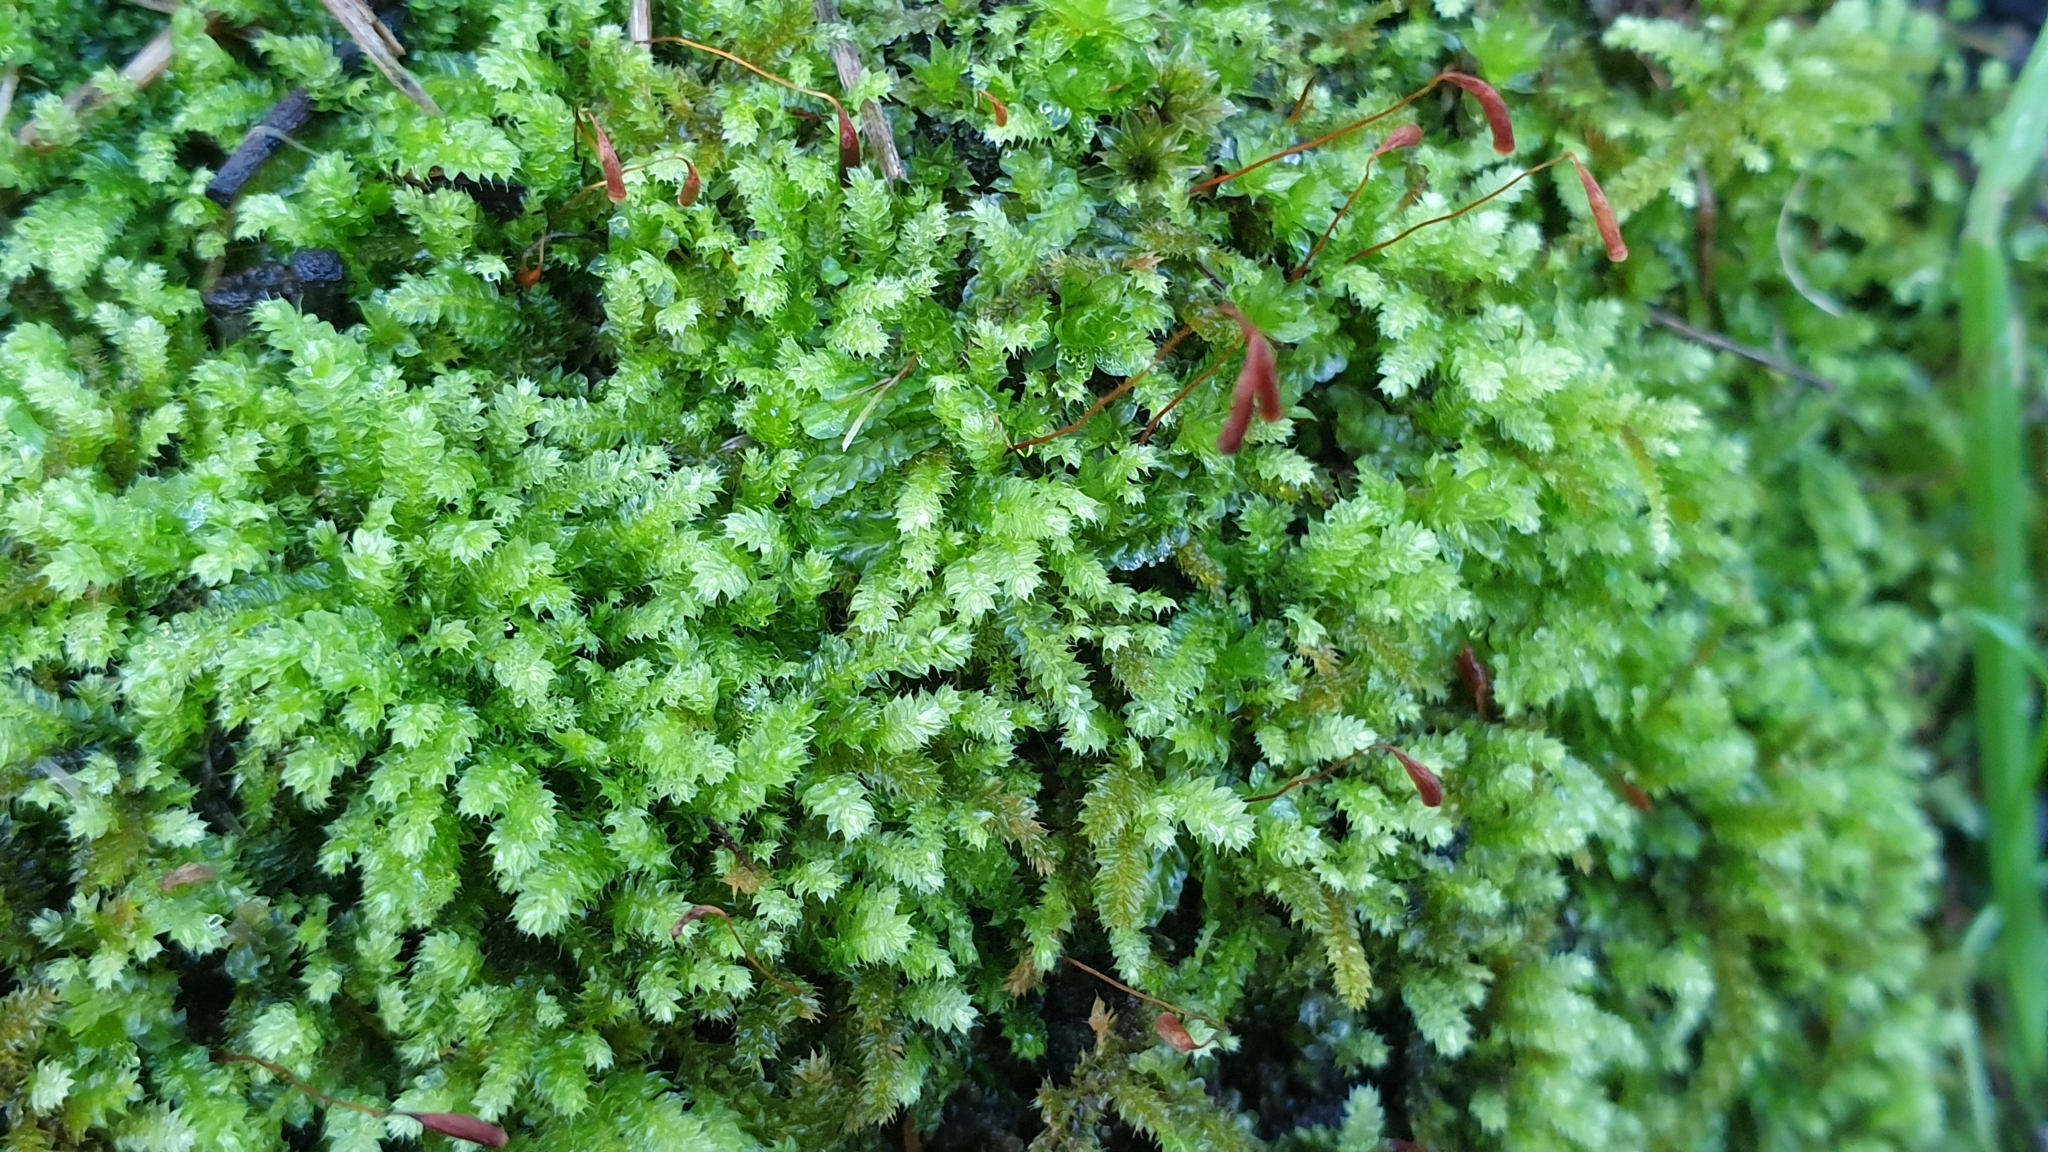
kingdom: Plantae
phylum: Bryophyta
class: Bryopsida
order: Hypnodendrales
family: Racopilaceae
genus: Racopilum
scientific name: Racopilum cuspidigerum
